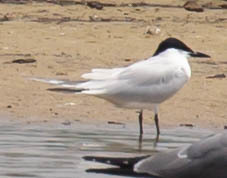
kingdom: Animalia
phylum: Chordata
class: Aves
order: Charadriiformes
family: Laridae
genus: Gelochelidon
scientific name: Gelochelidon nilotica
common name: Gull-billed tern
